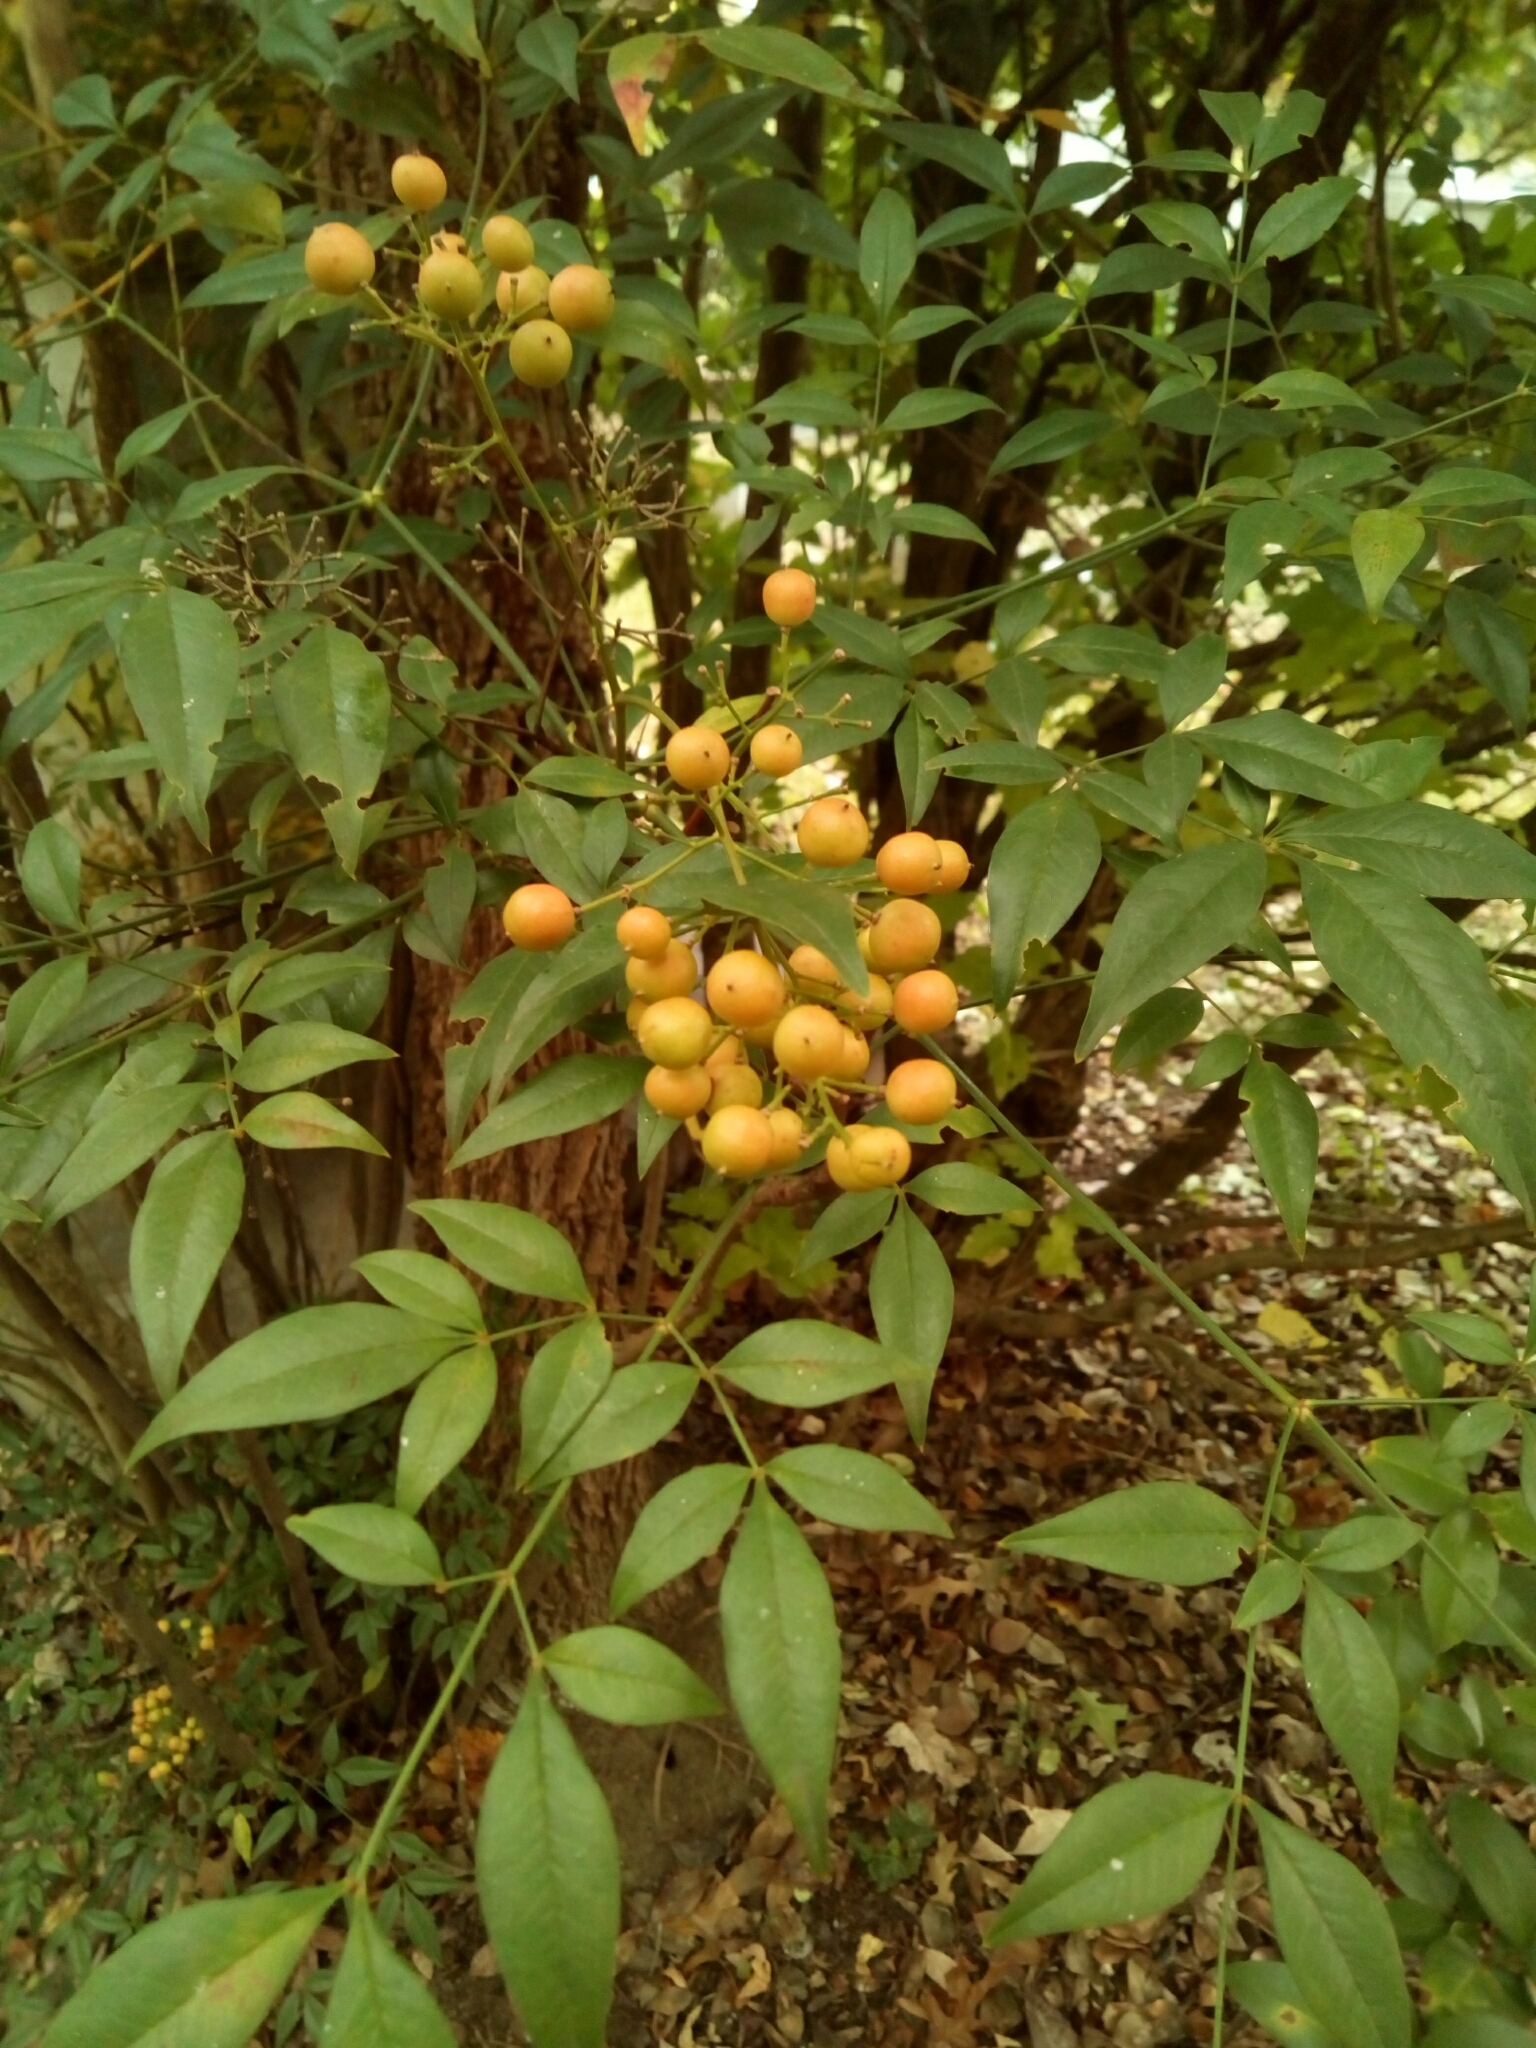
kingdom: Plantae
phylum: Tracheophyta
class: Magnoliopsida
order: Ranunculales
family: Berberidaceae
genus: Nandina
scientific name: Nandina domestica
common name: Sacred bamboo
